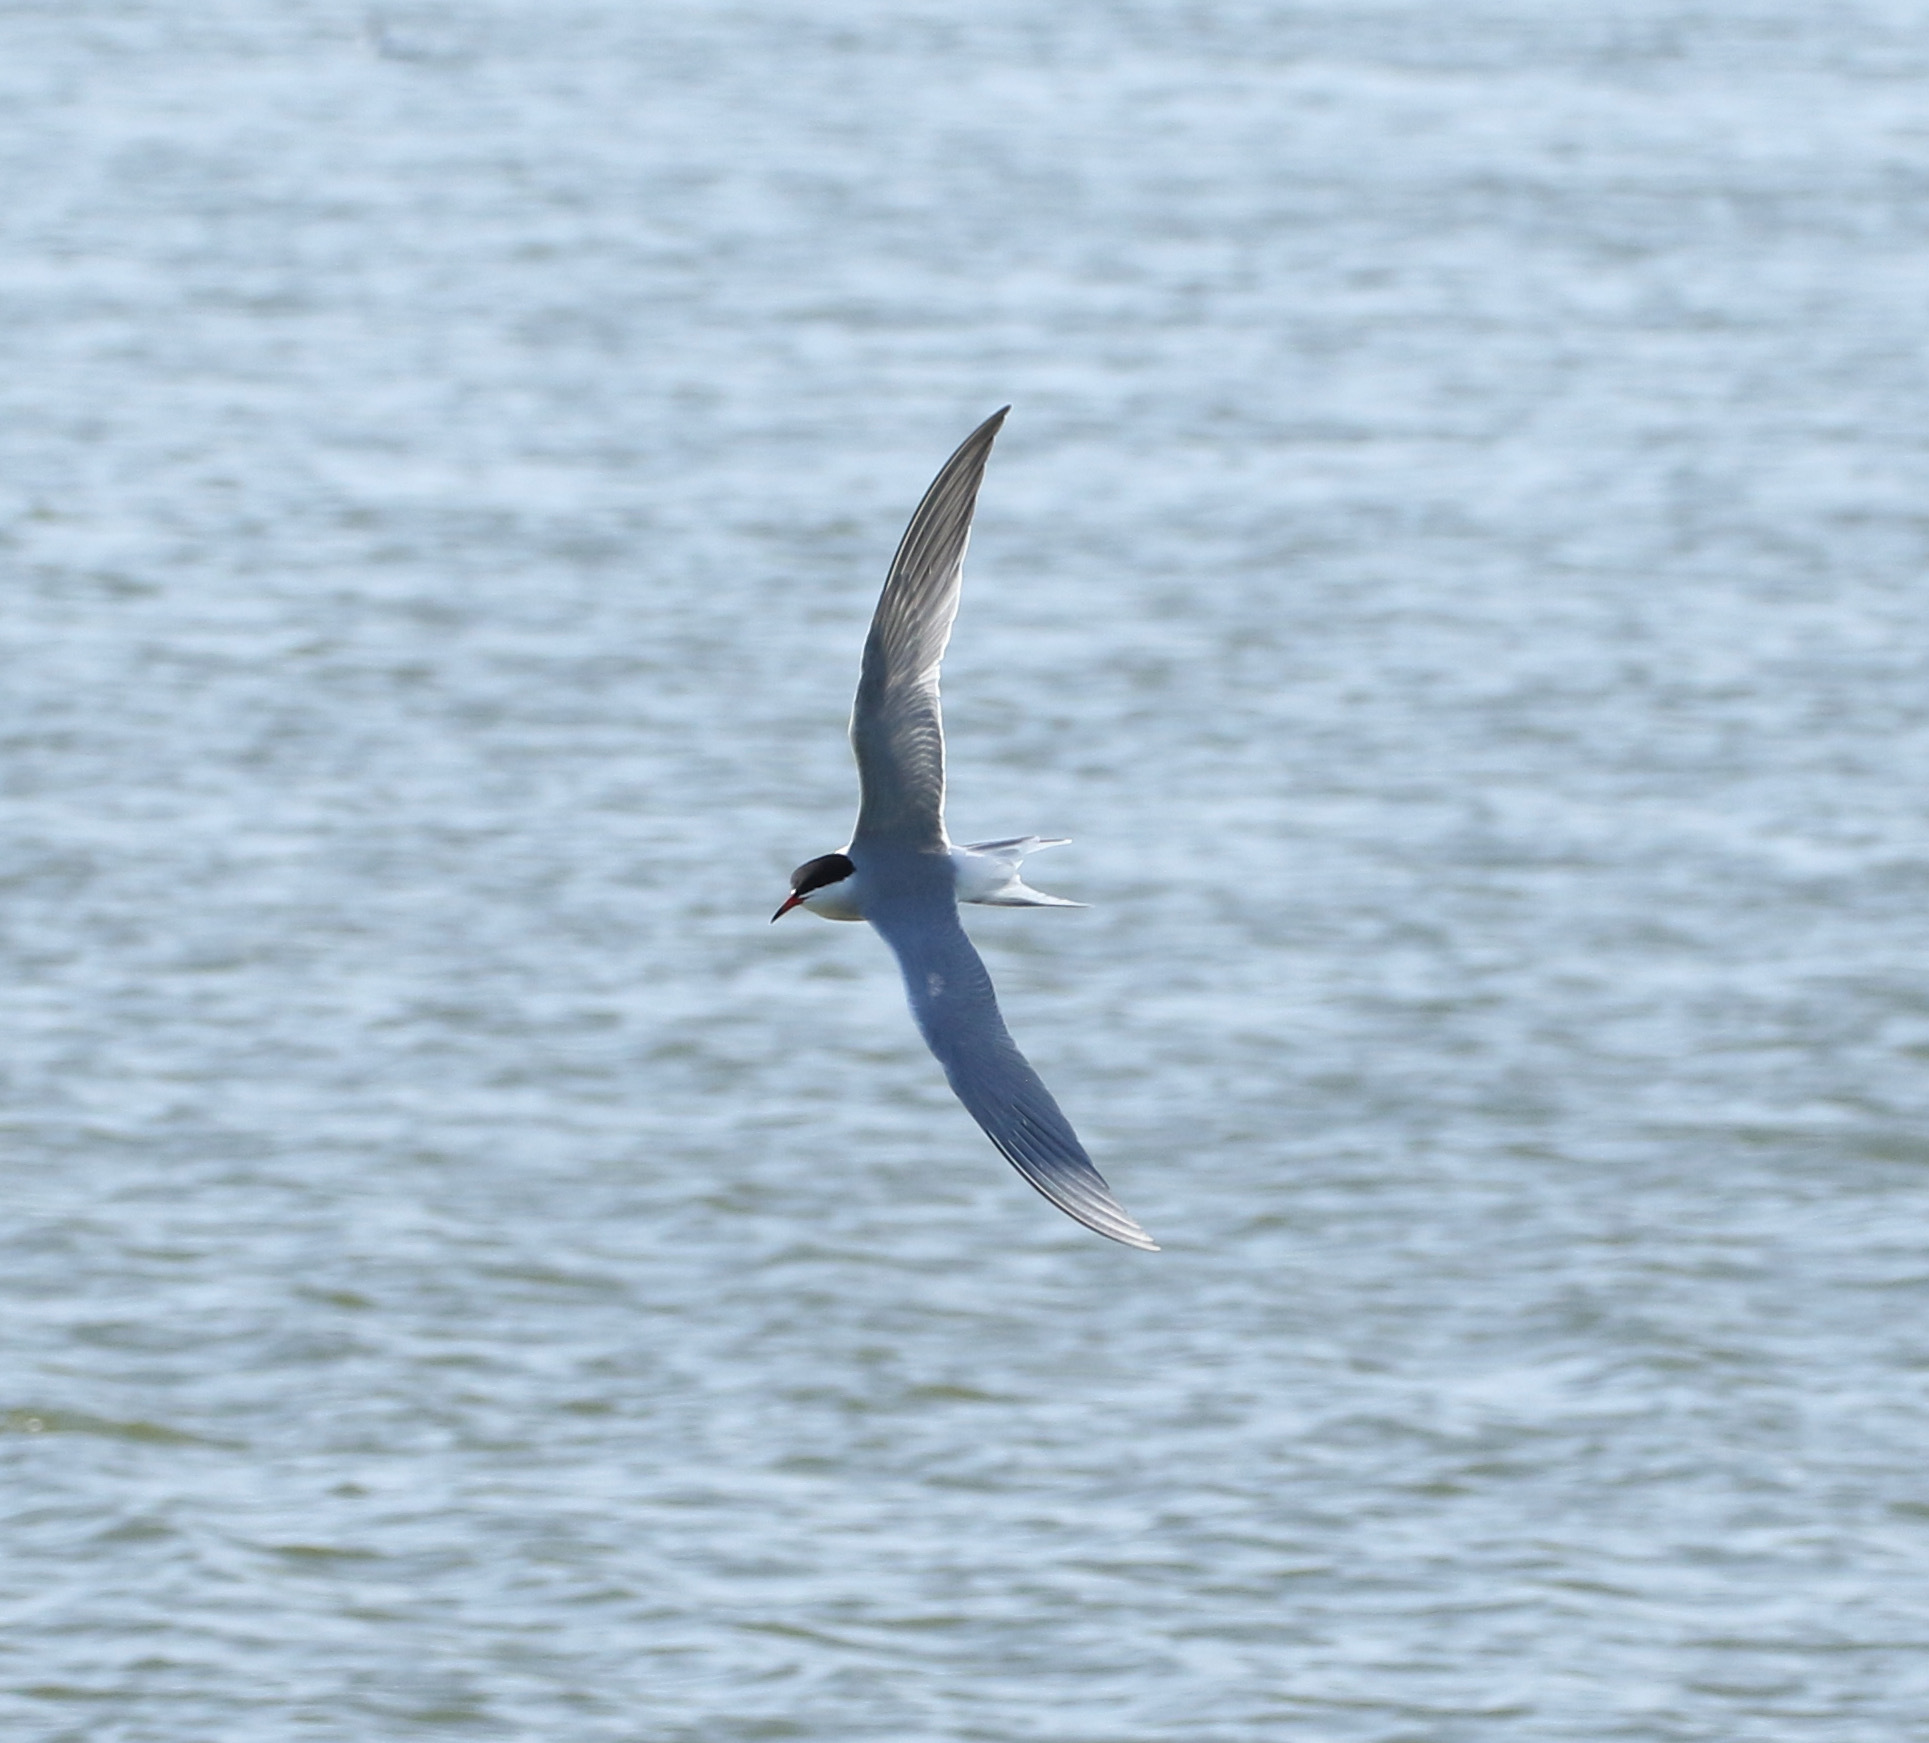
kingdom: Animalia
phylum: Chordata
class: Aves
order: Charadriiformes
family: Laridae
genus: Sterna
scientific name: Sterna hirundo
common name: Common tern
